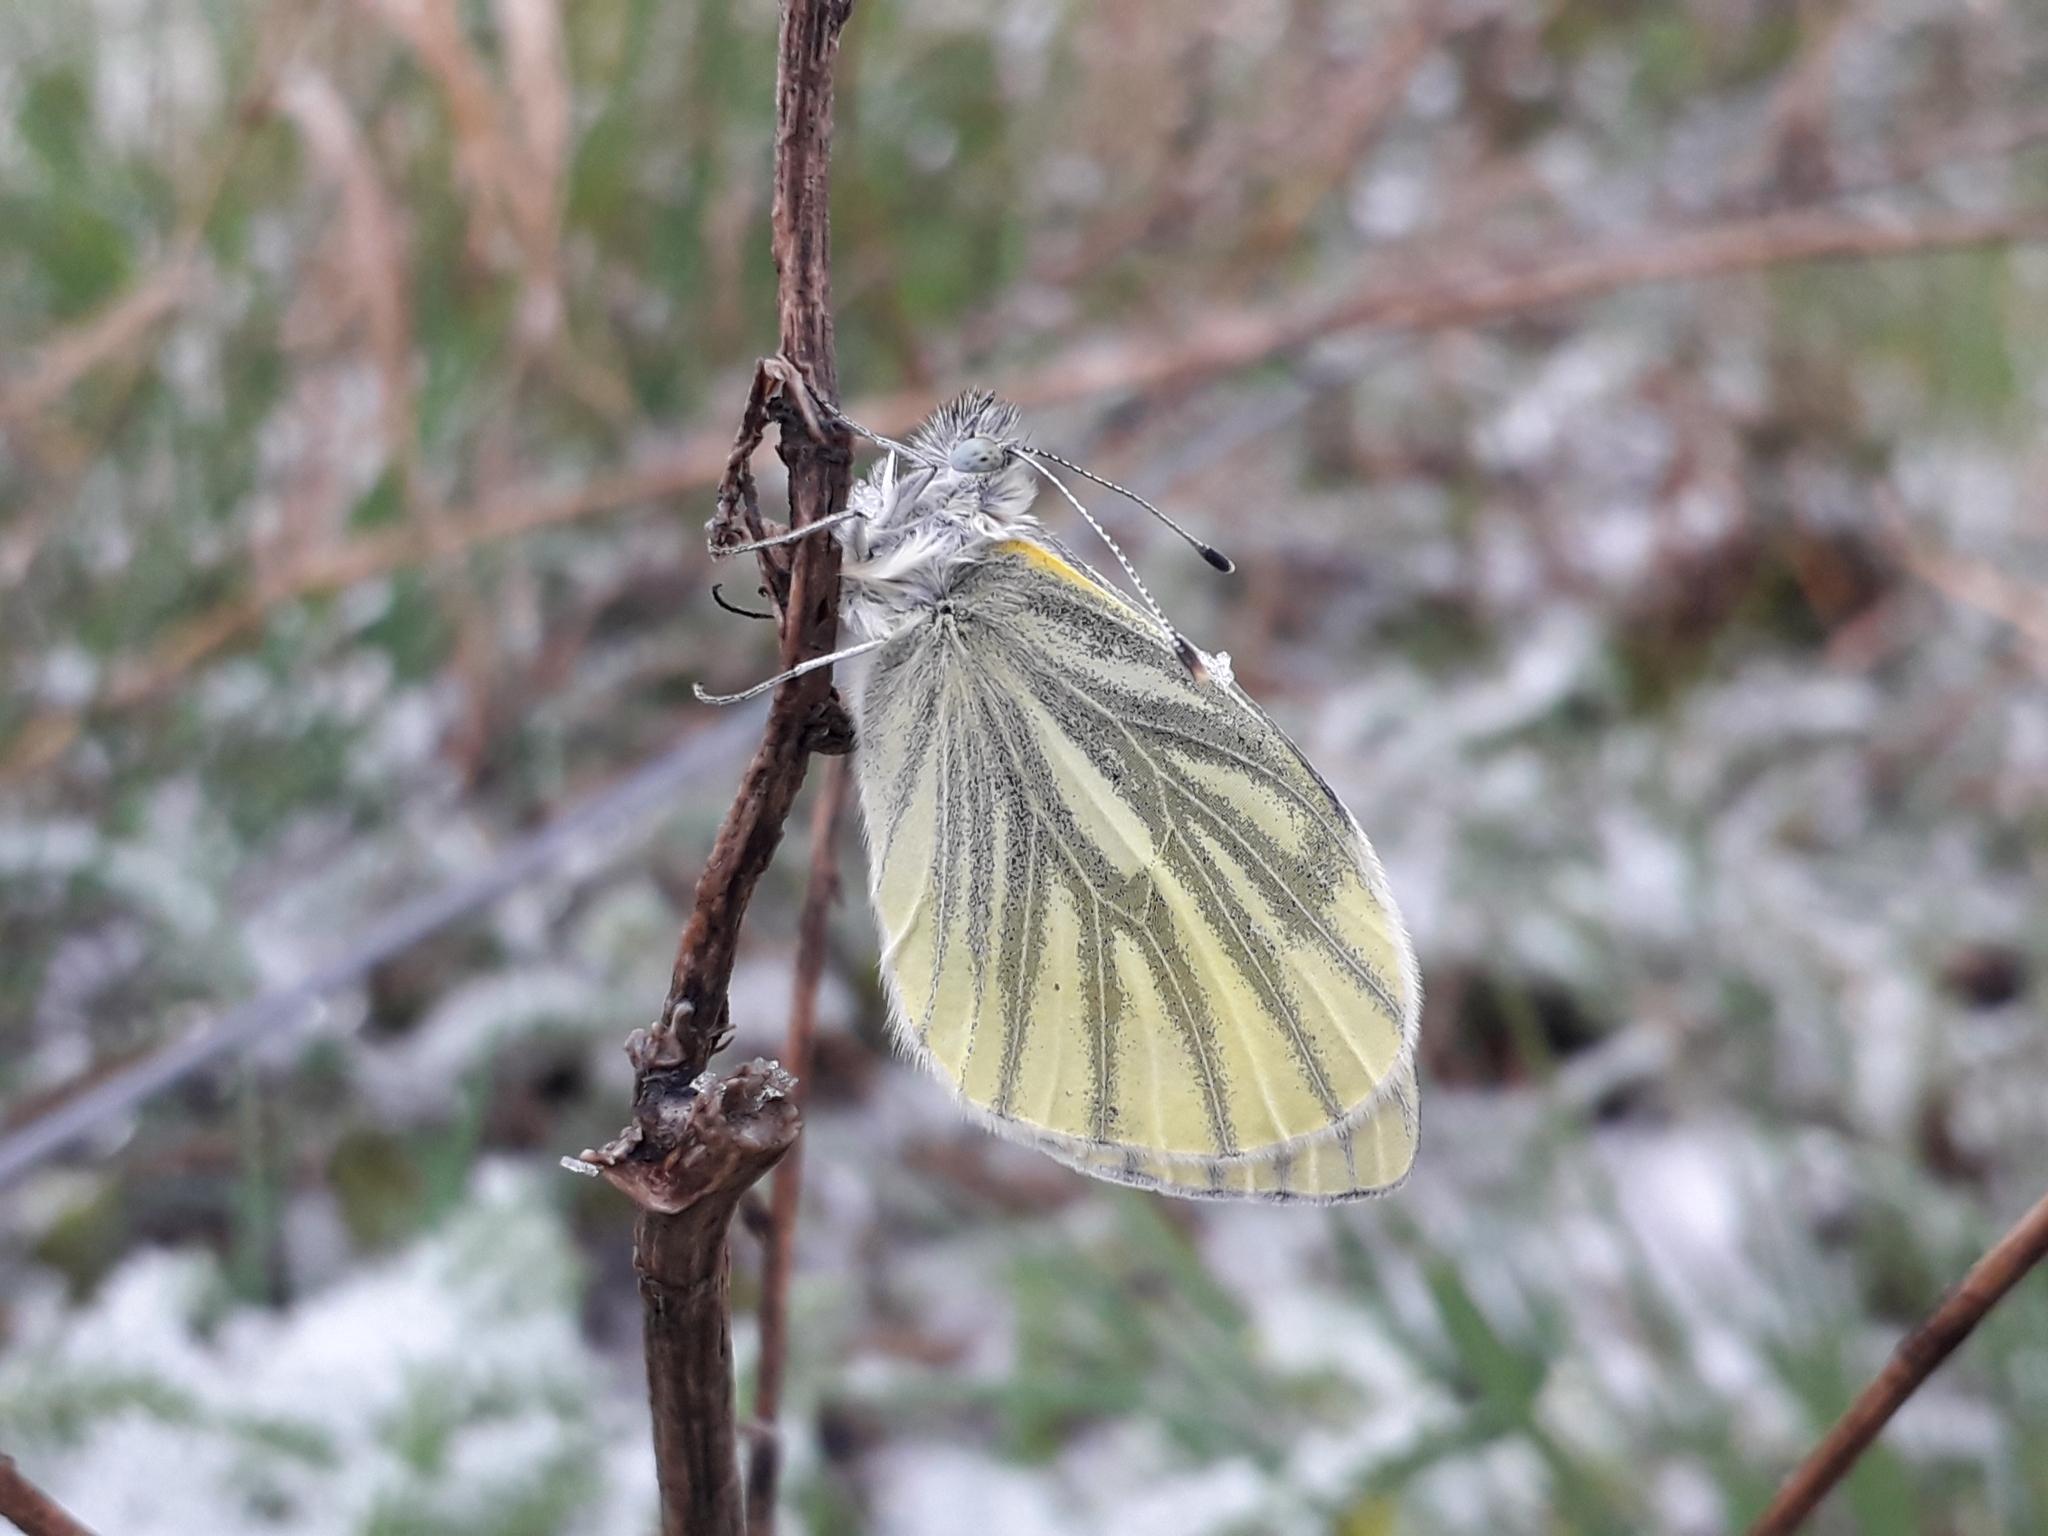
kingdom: Animalia
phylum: Arthropoda
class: Insecta
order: Lepidoptera
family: Pieridae
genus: Pieris
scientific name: Pieris napi
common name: Green-veined white
